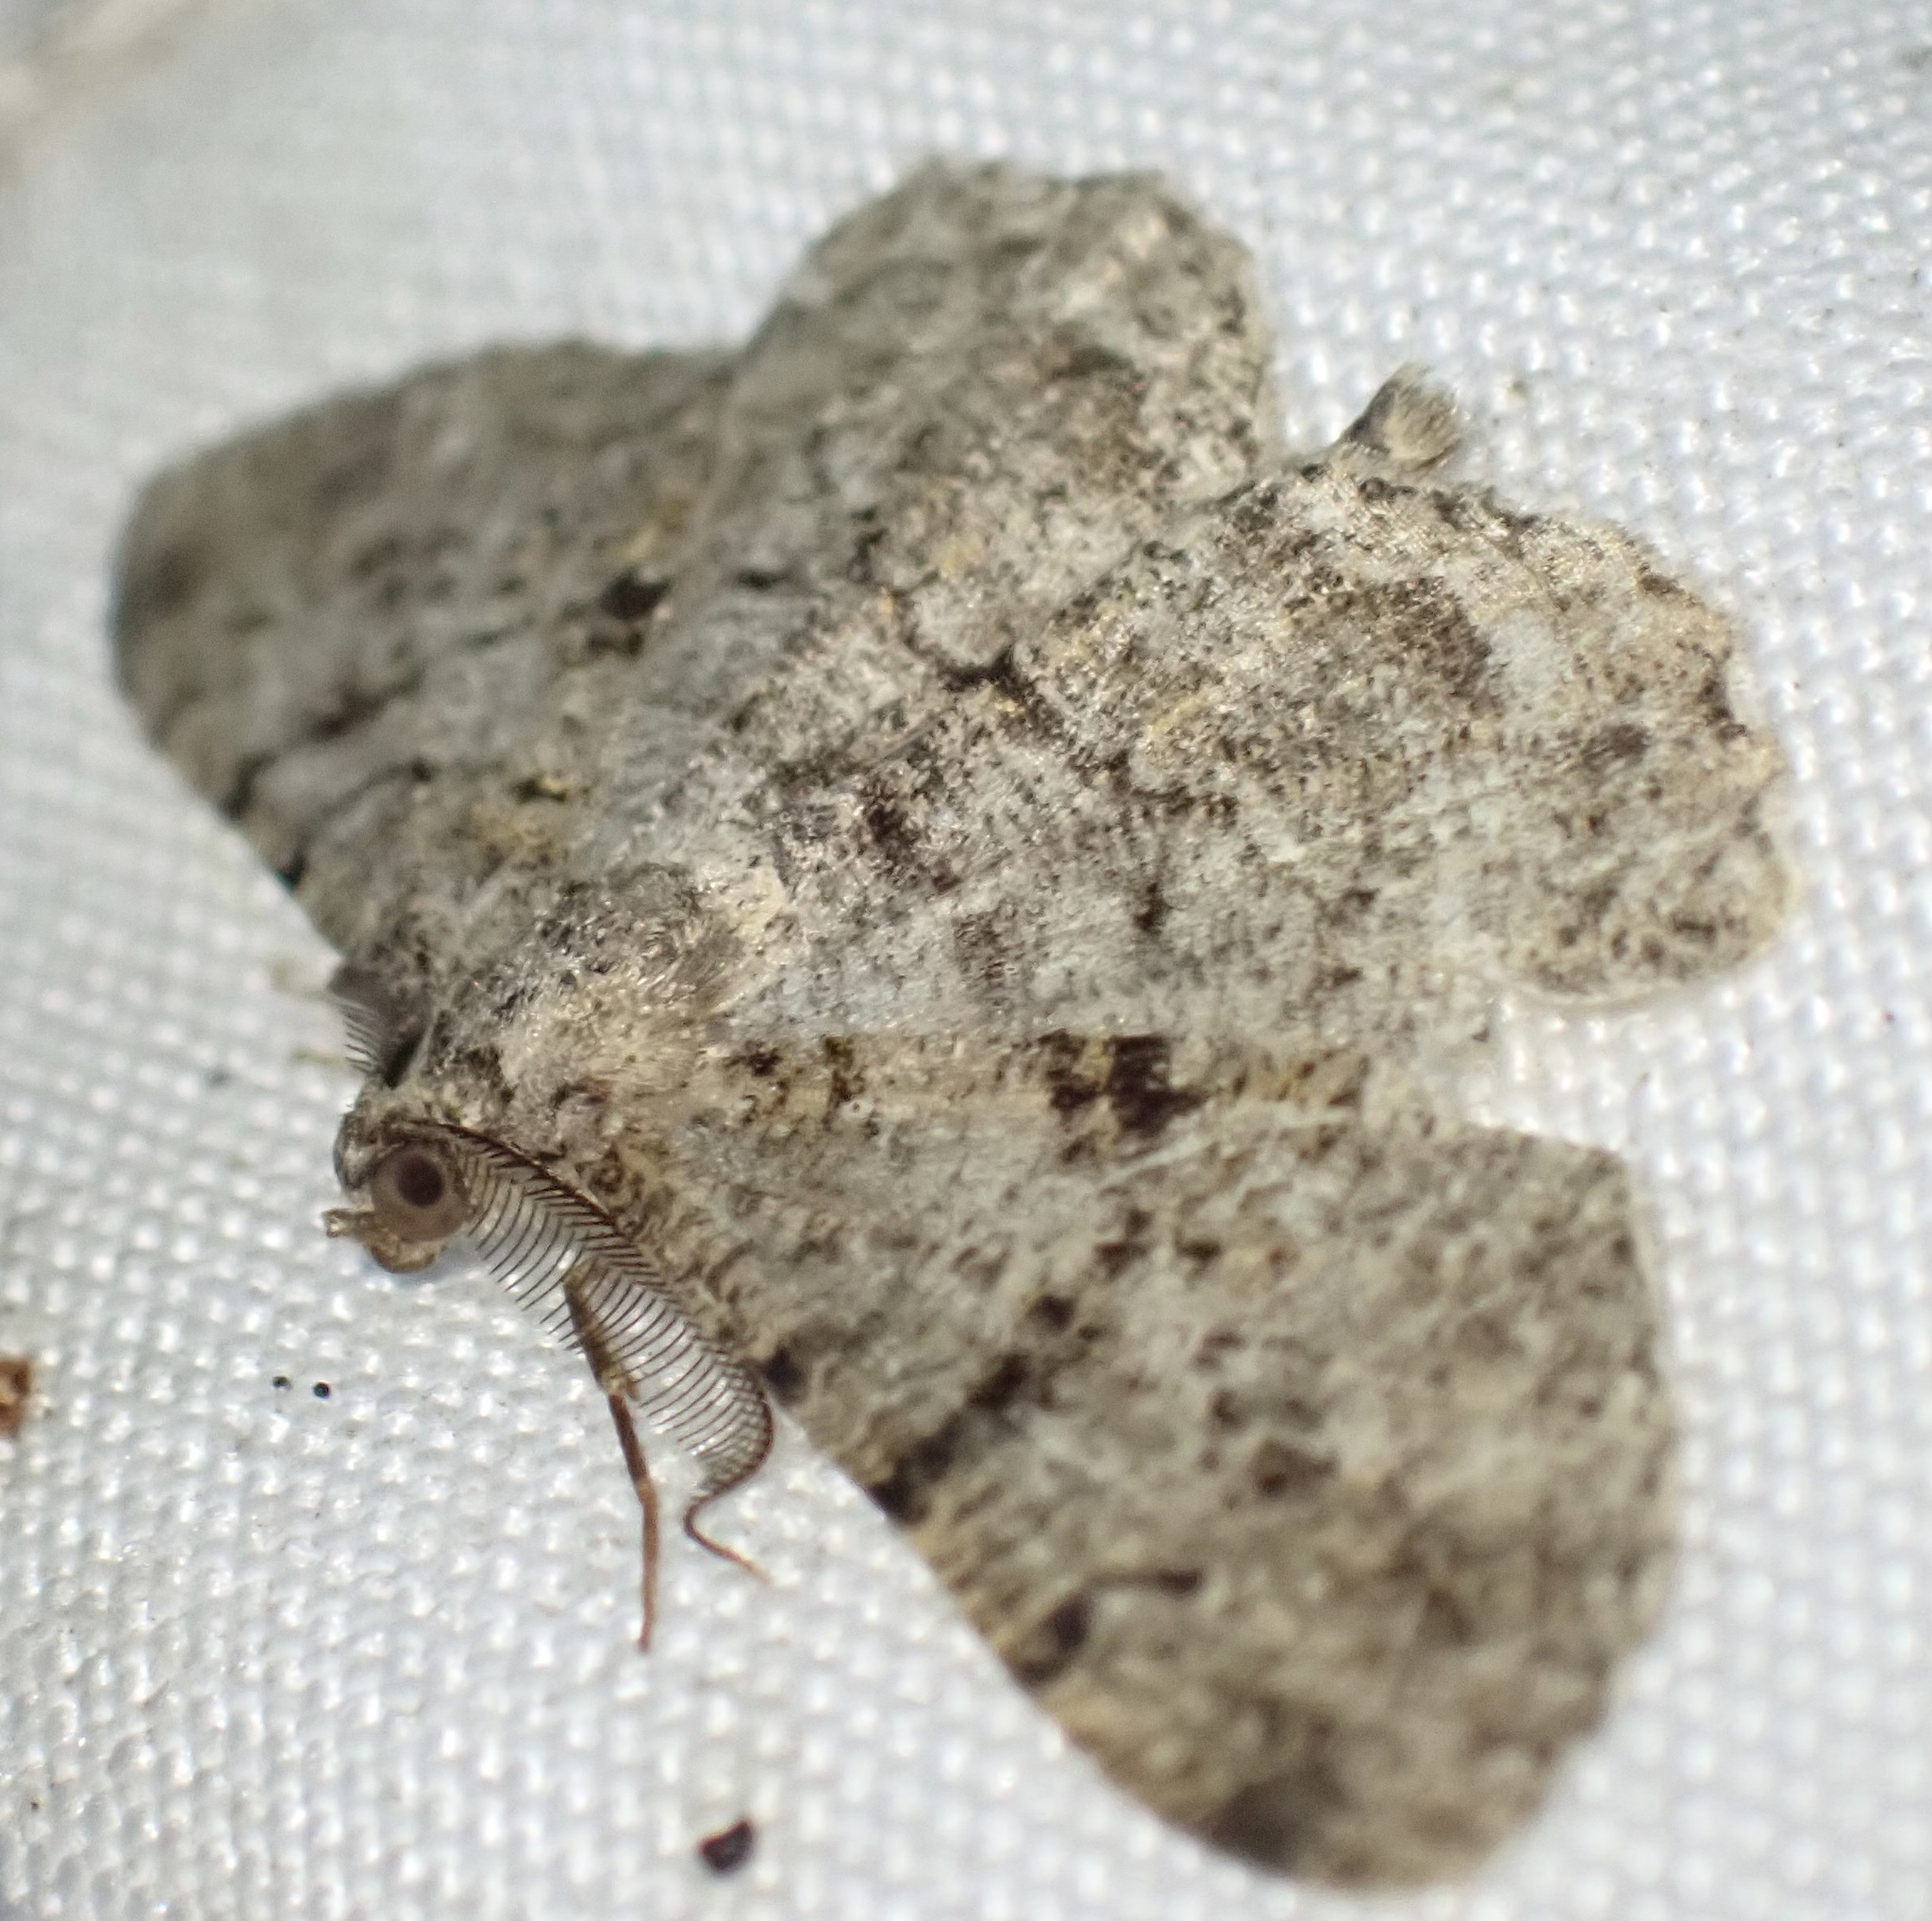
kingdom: Animalia
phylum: Arthropoda
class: Insecta
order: Lepidoptera
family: Geometridae
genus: Peribatodes
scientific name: Peribatodes rhomboidaria
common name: Willow beauty
